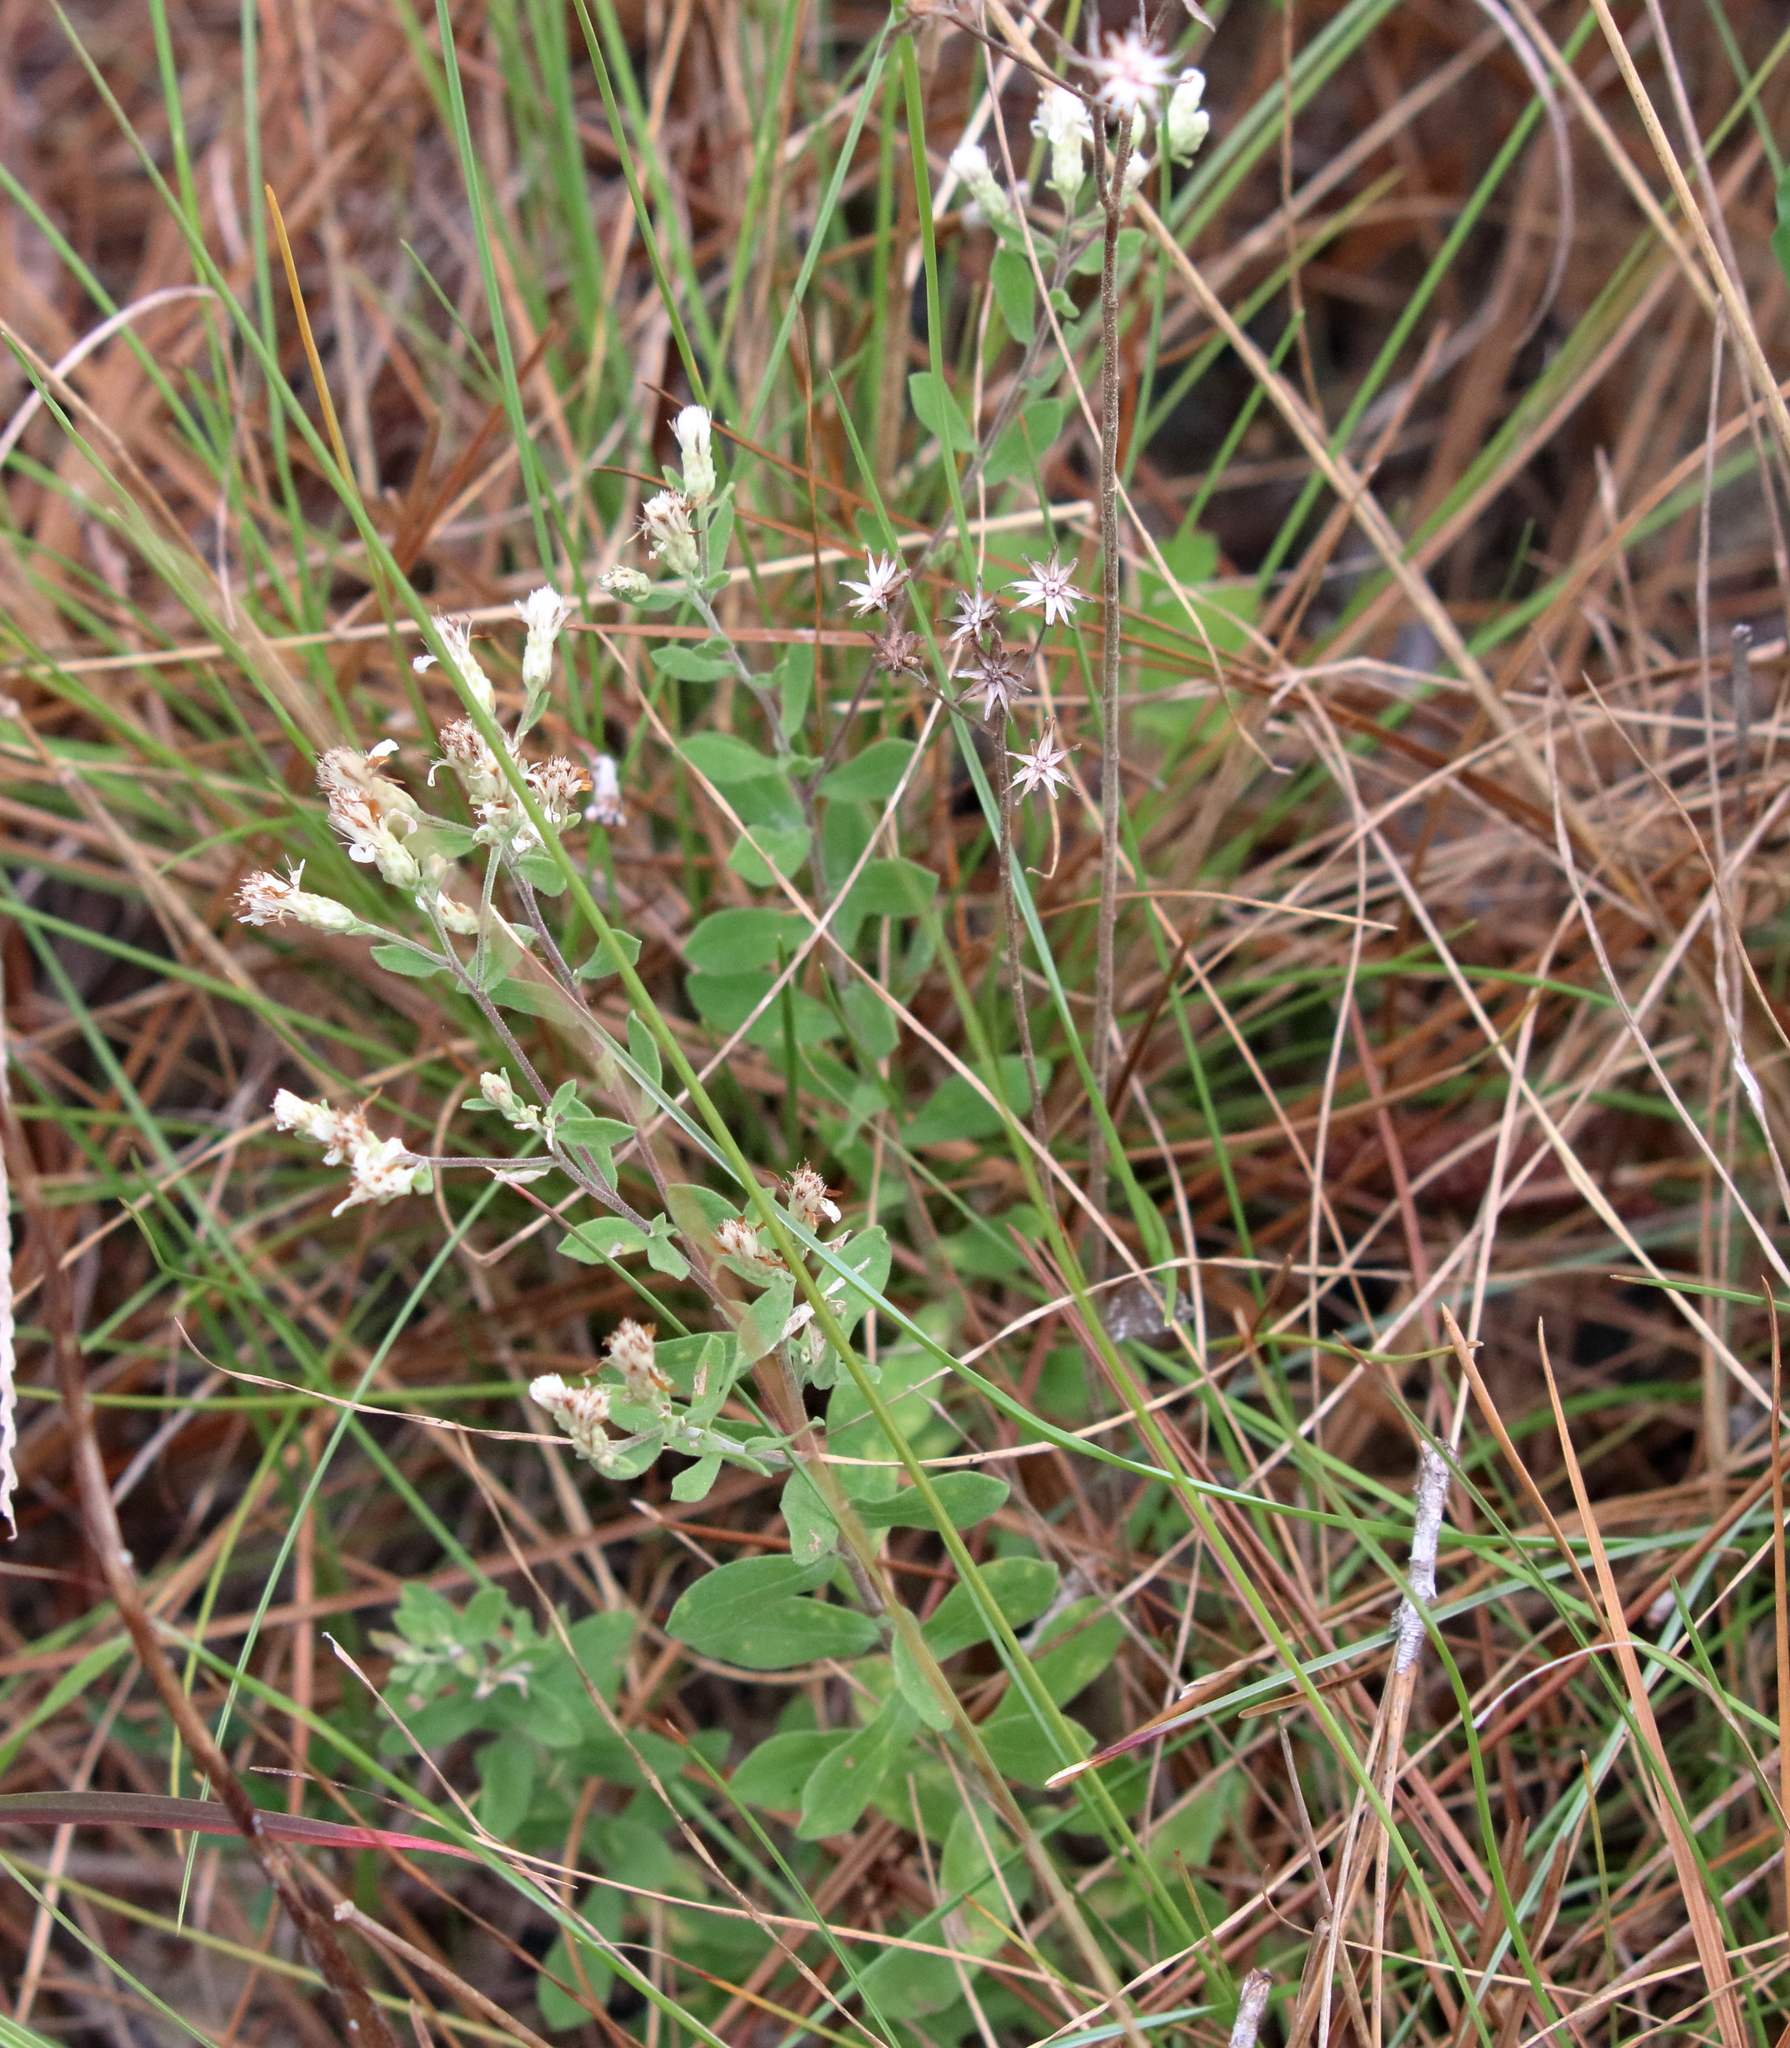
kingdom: Plantae
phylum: Tracheophyta
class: Magnoliopsida
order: Asterales
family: Asteraceae
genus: Sericocarpus
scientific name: Sericocarpus tortifolius
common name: Dixie aster
